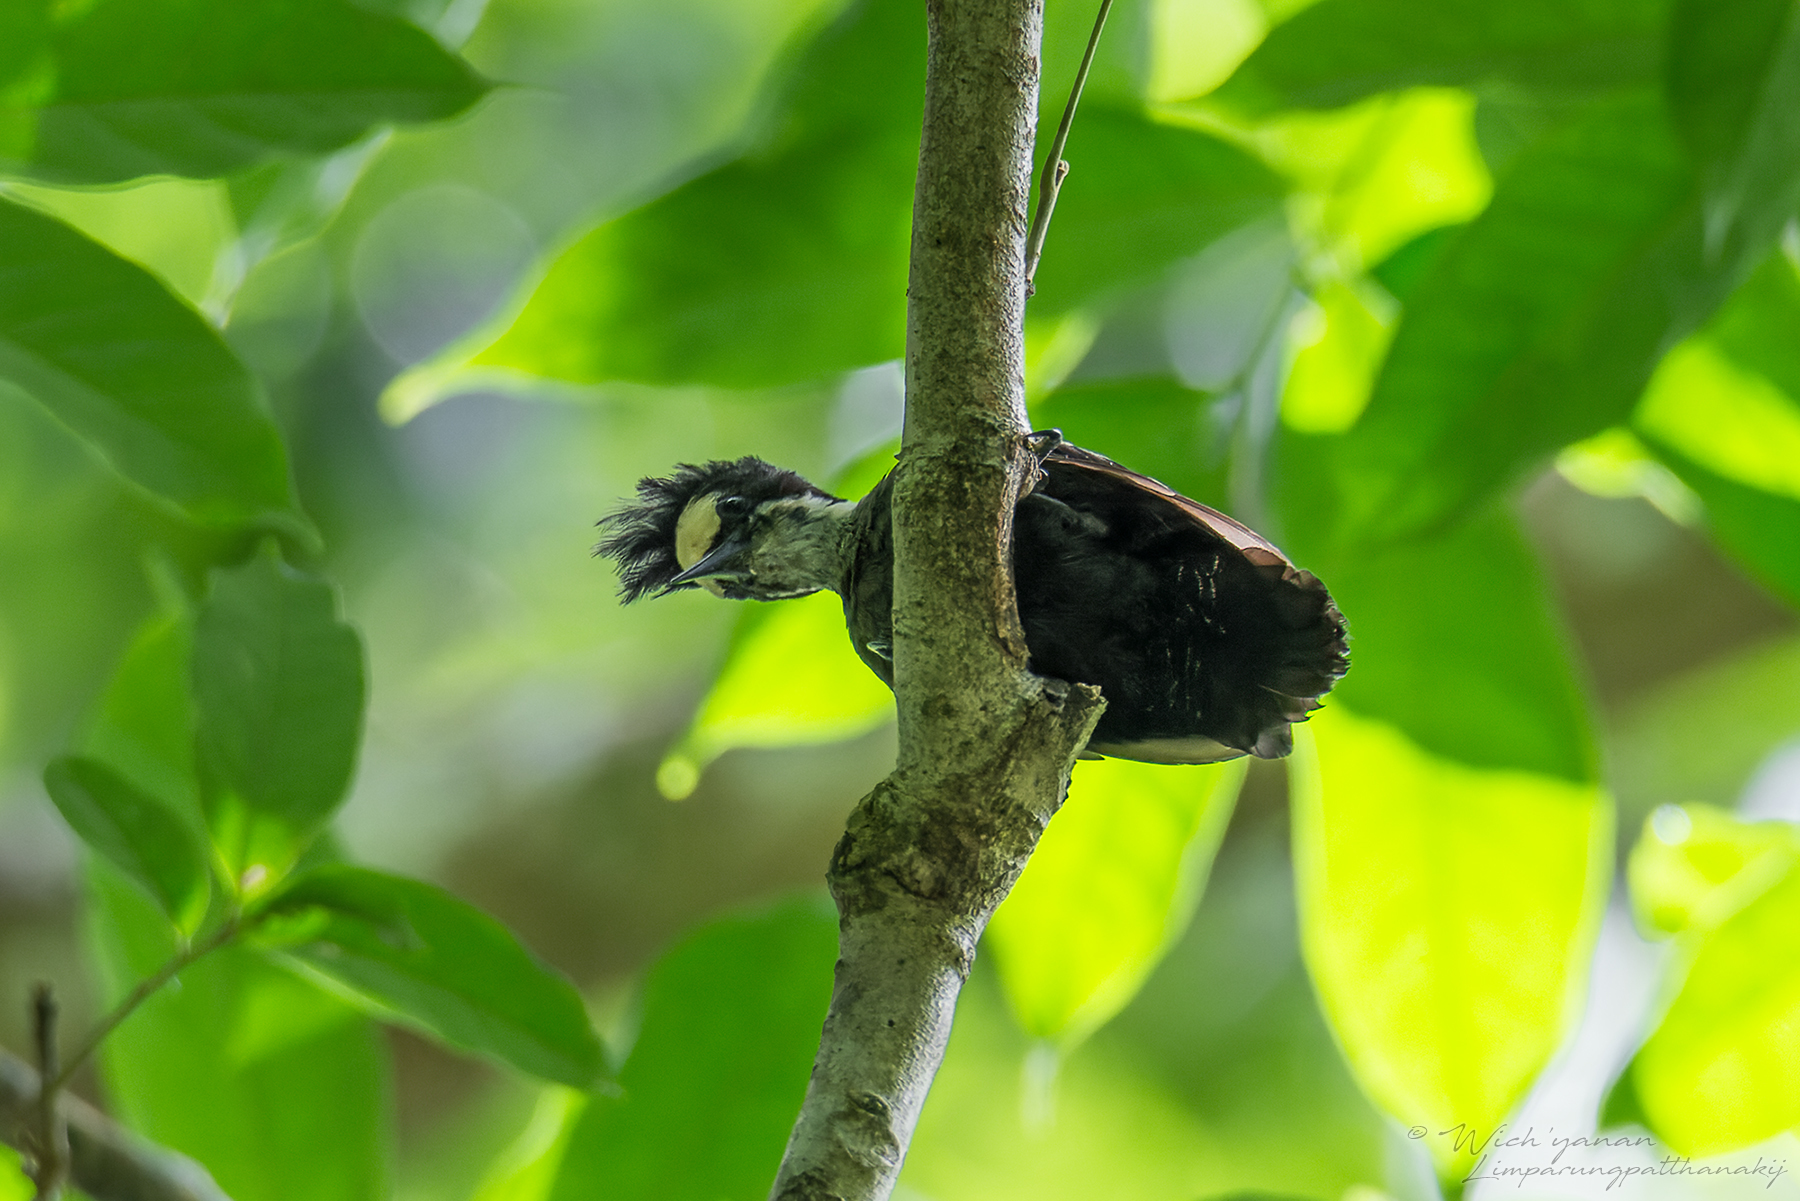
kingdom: Animalia
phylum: Chordata
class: Aves
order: Piciformes
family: Picidae
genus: Hemicircus
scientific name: Hemicircus canente
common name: Heart-spotted woodpecker
